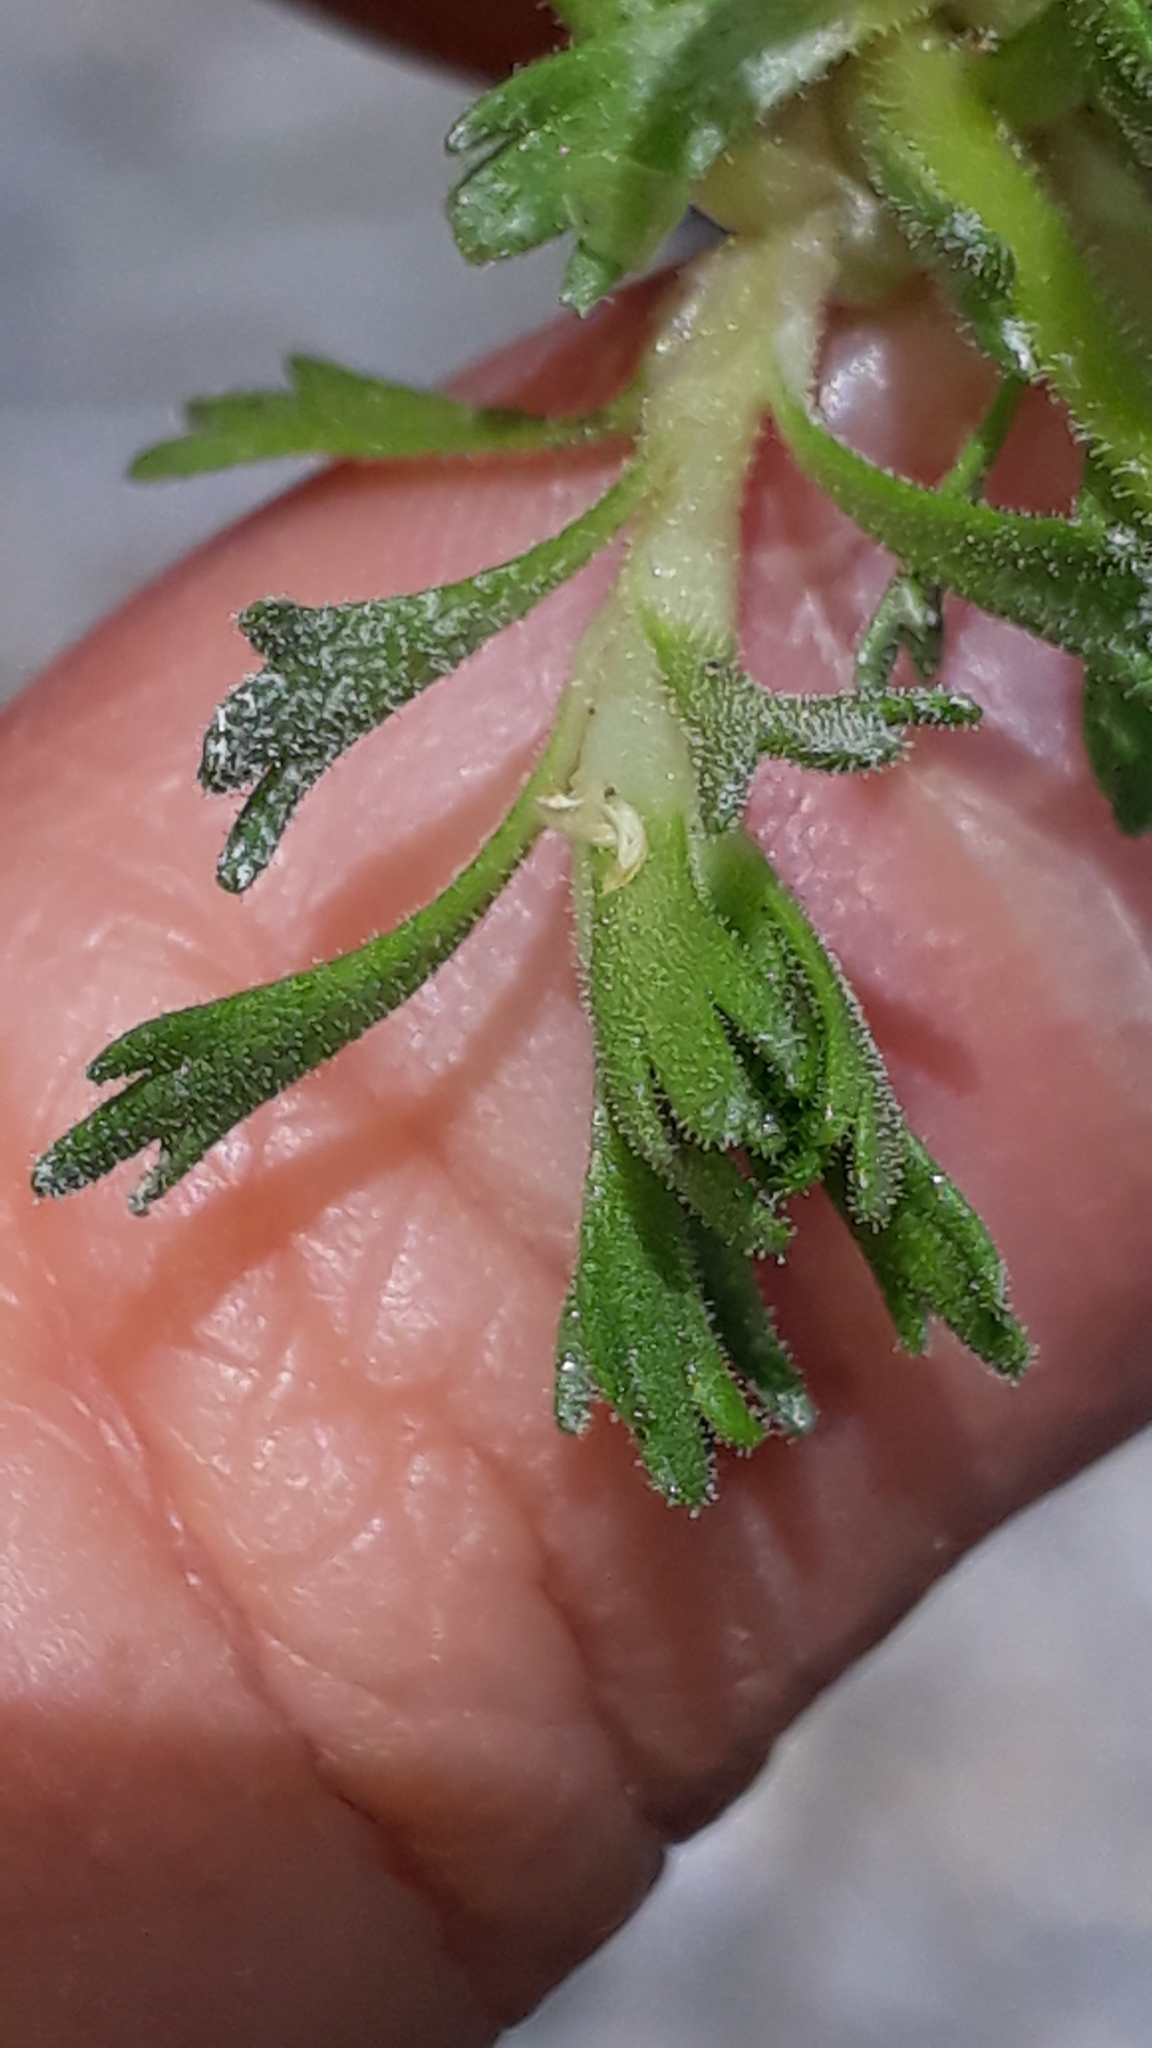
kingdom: Plantae
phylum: Tracheophyta
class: Magnoliopsida
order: Saxifragales
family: Saxifragaceae
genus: Saxifraga
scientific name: Saxifraga exarata
